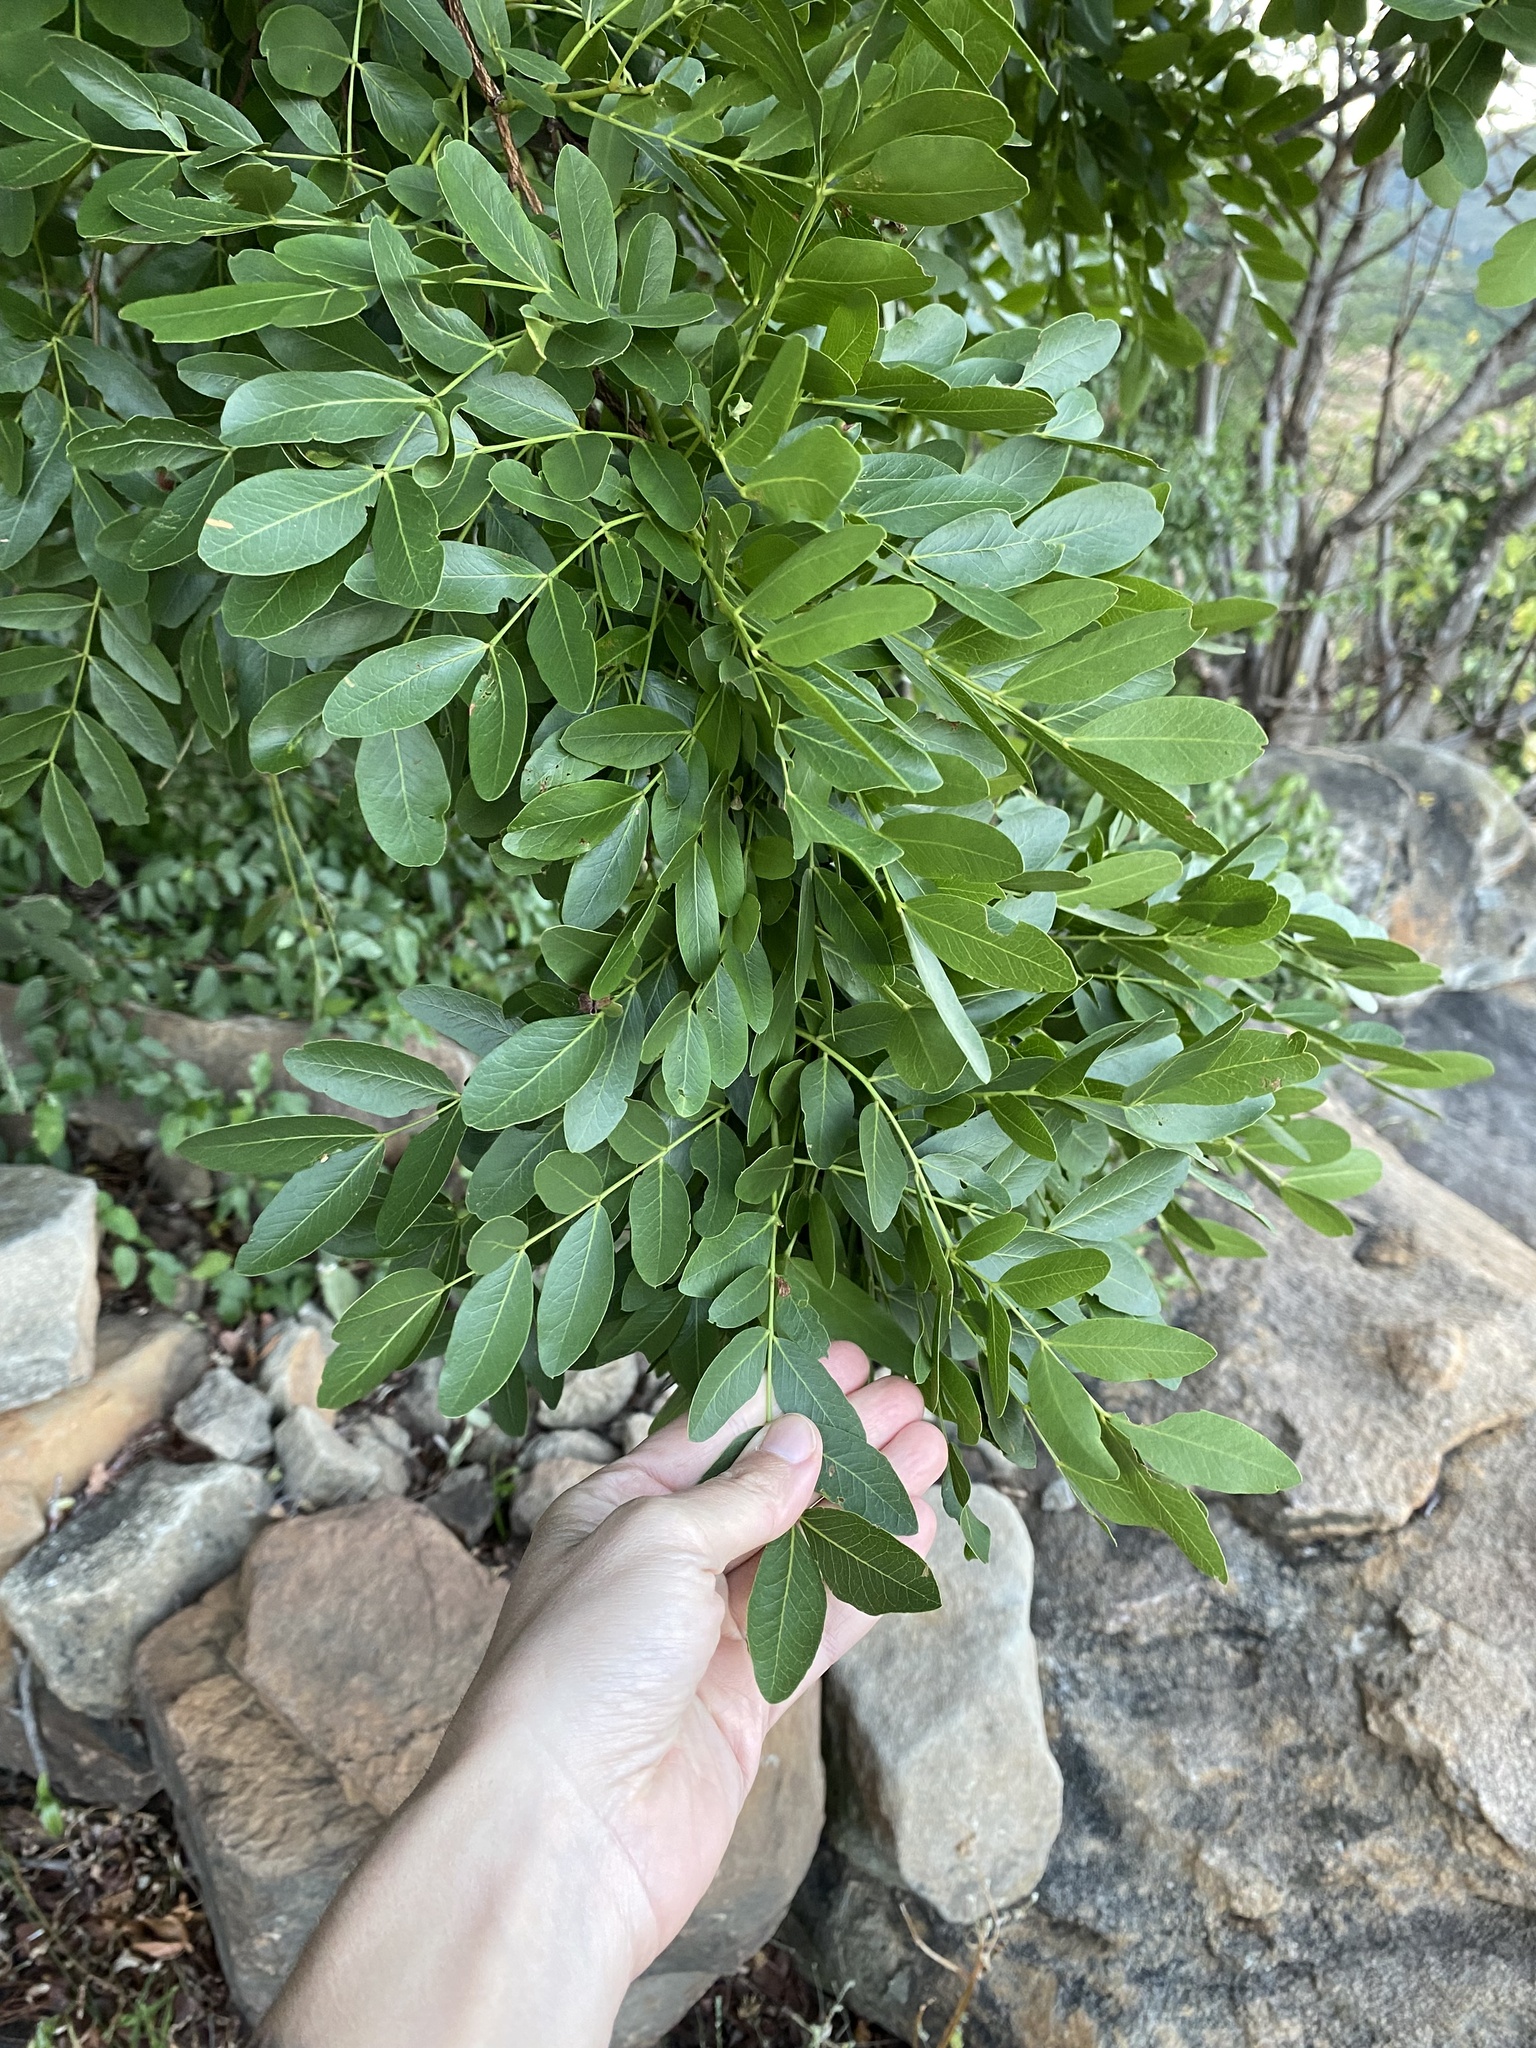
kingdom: Plantae
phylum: Tracheophyta
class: Magnoliopsida
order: Fabales
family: Fabaceae
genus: Schotia
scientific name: Schotia brachypetala
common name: Weeping boer-bean
